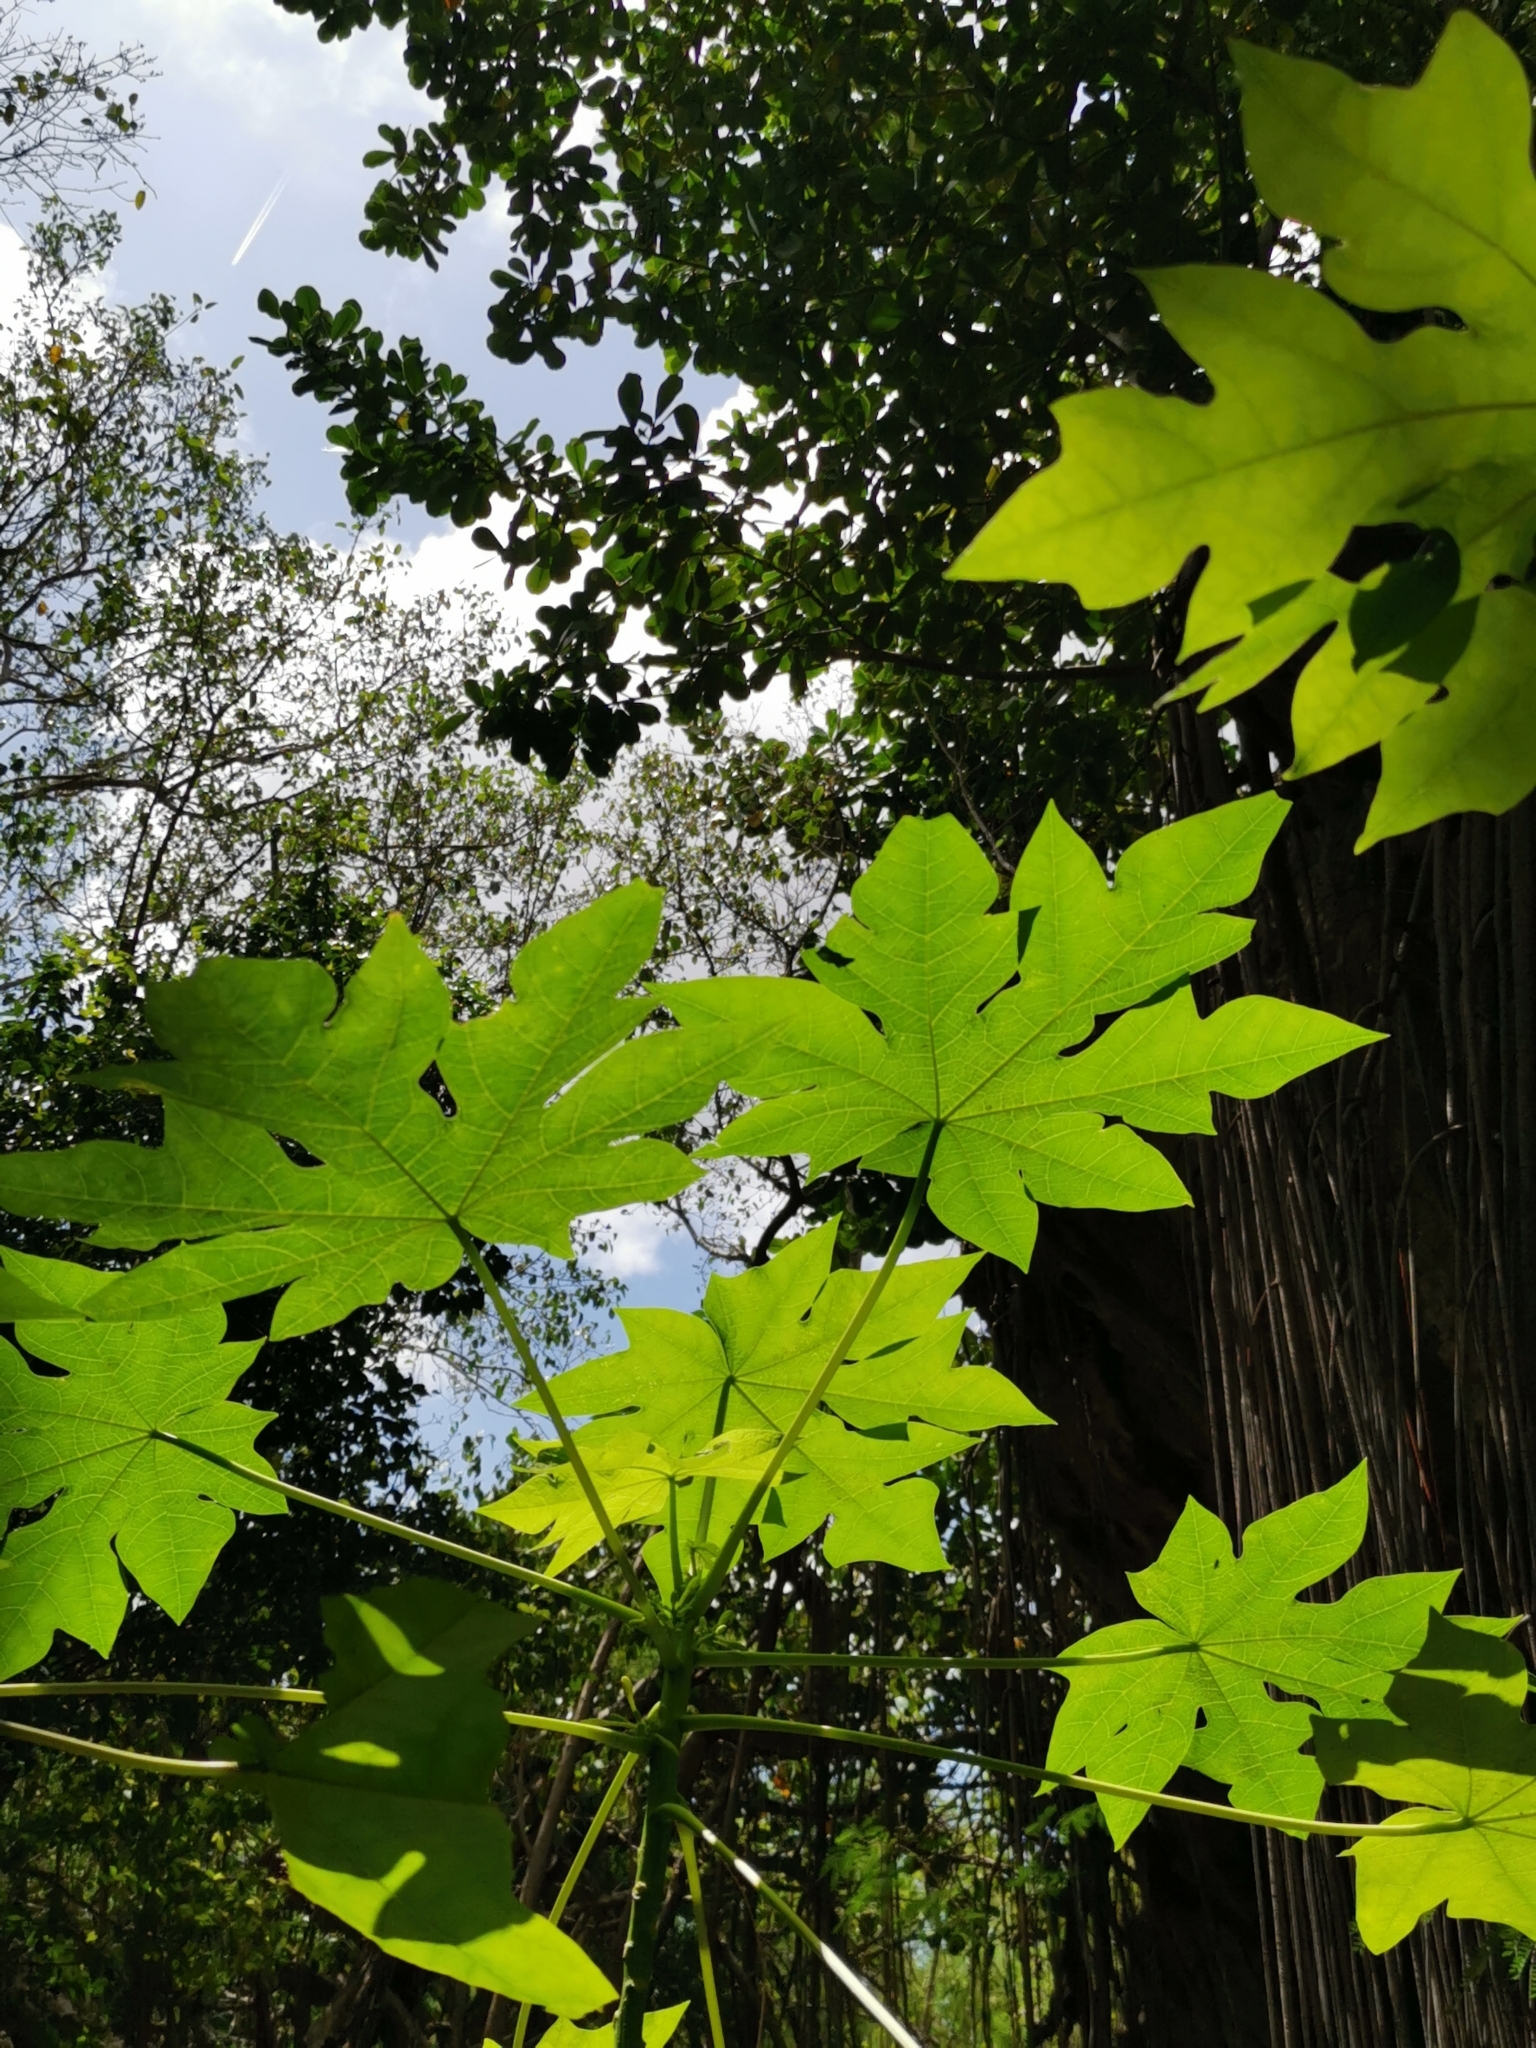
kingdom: Plantae
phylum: Tracheophyta
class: Magnoliopsida
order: Brassicales
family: Caricaceae
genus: Carica
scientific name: Carica papaya
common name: Papaya
